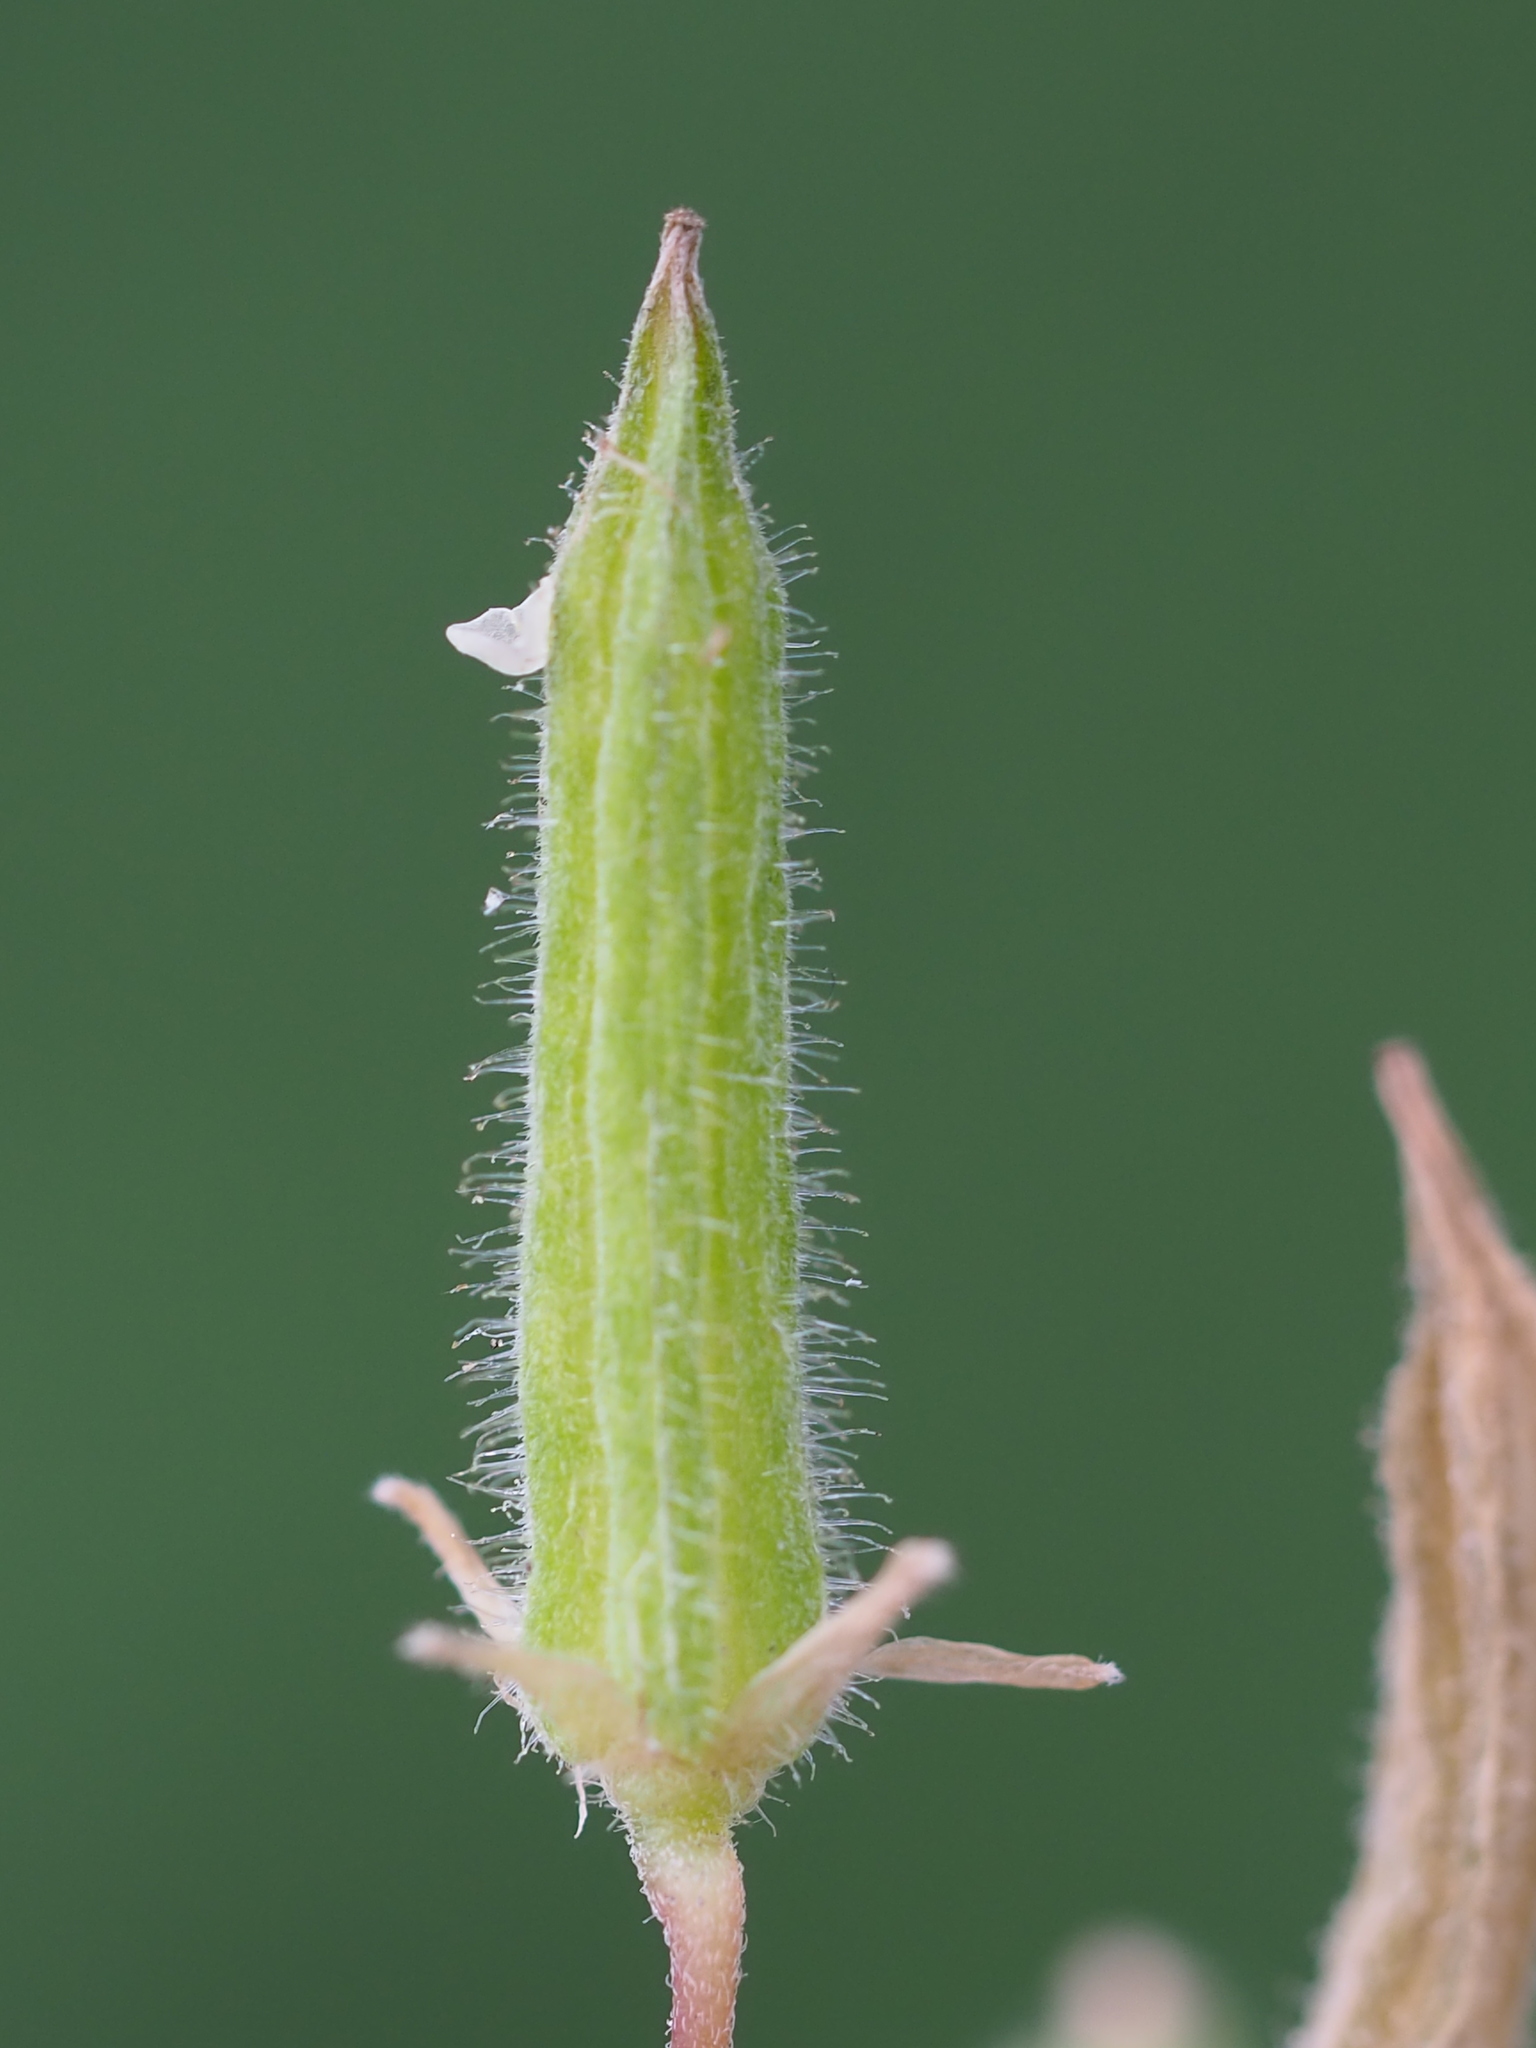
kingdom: Plantae
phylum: Tracheophyta
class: Magnoliopsida
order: Oxalidales
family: Oxalidaceae
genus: Oxalis
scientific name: Oxalis corniculata
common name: Procumbent yellow-sorrel
